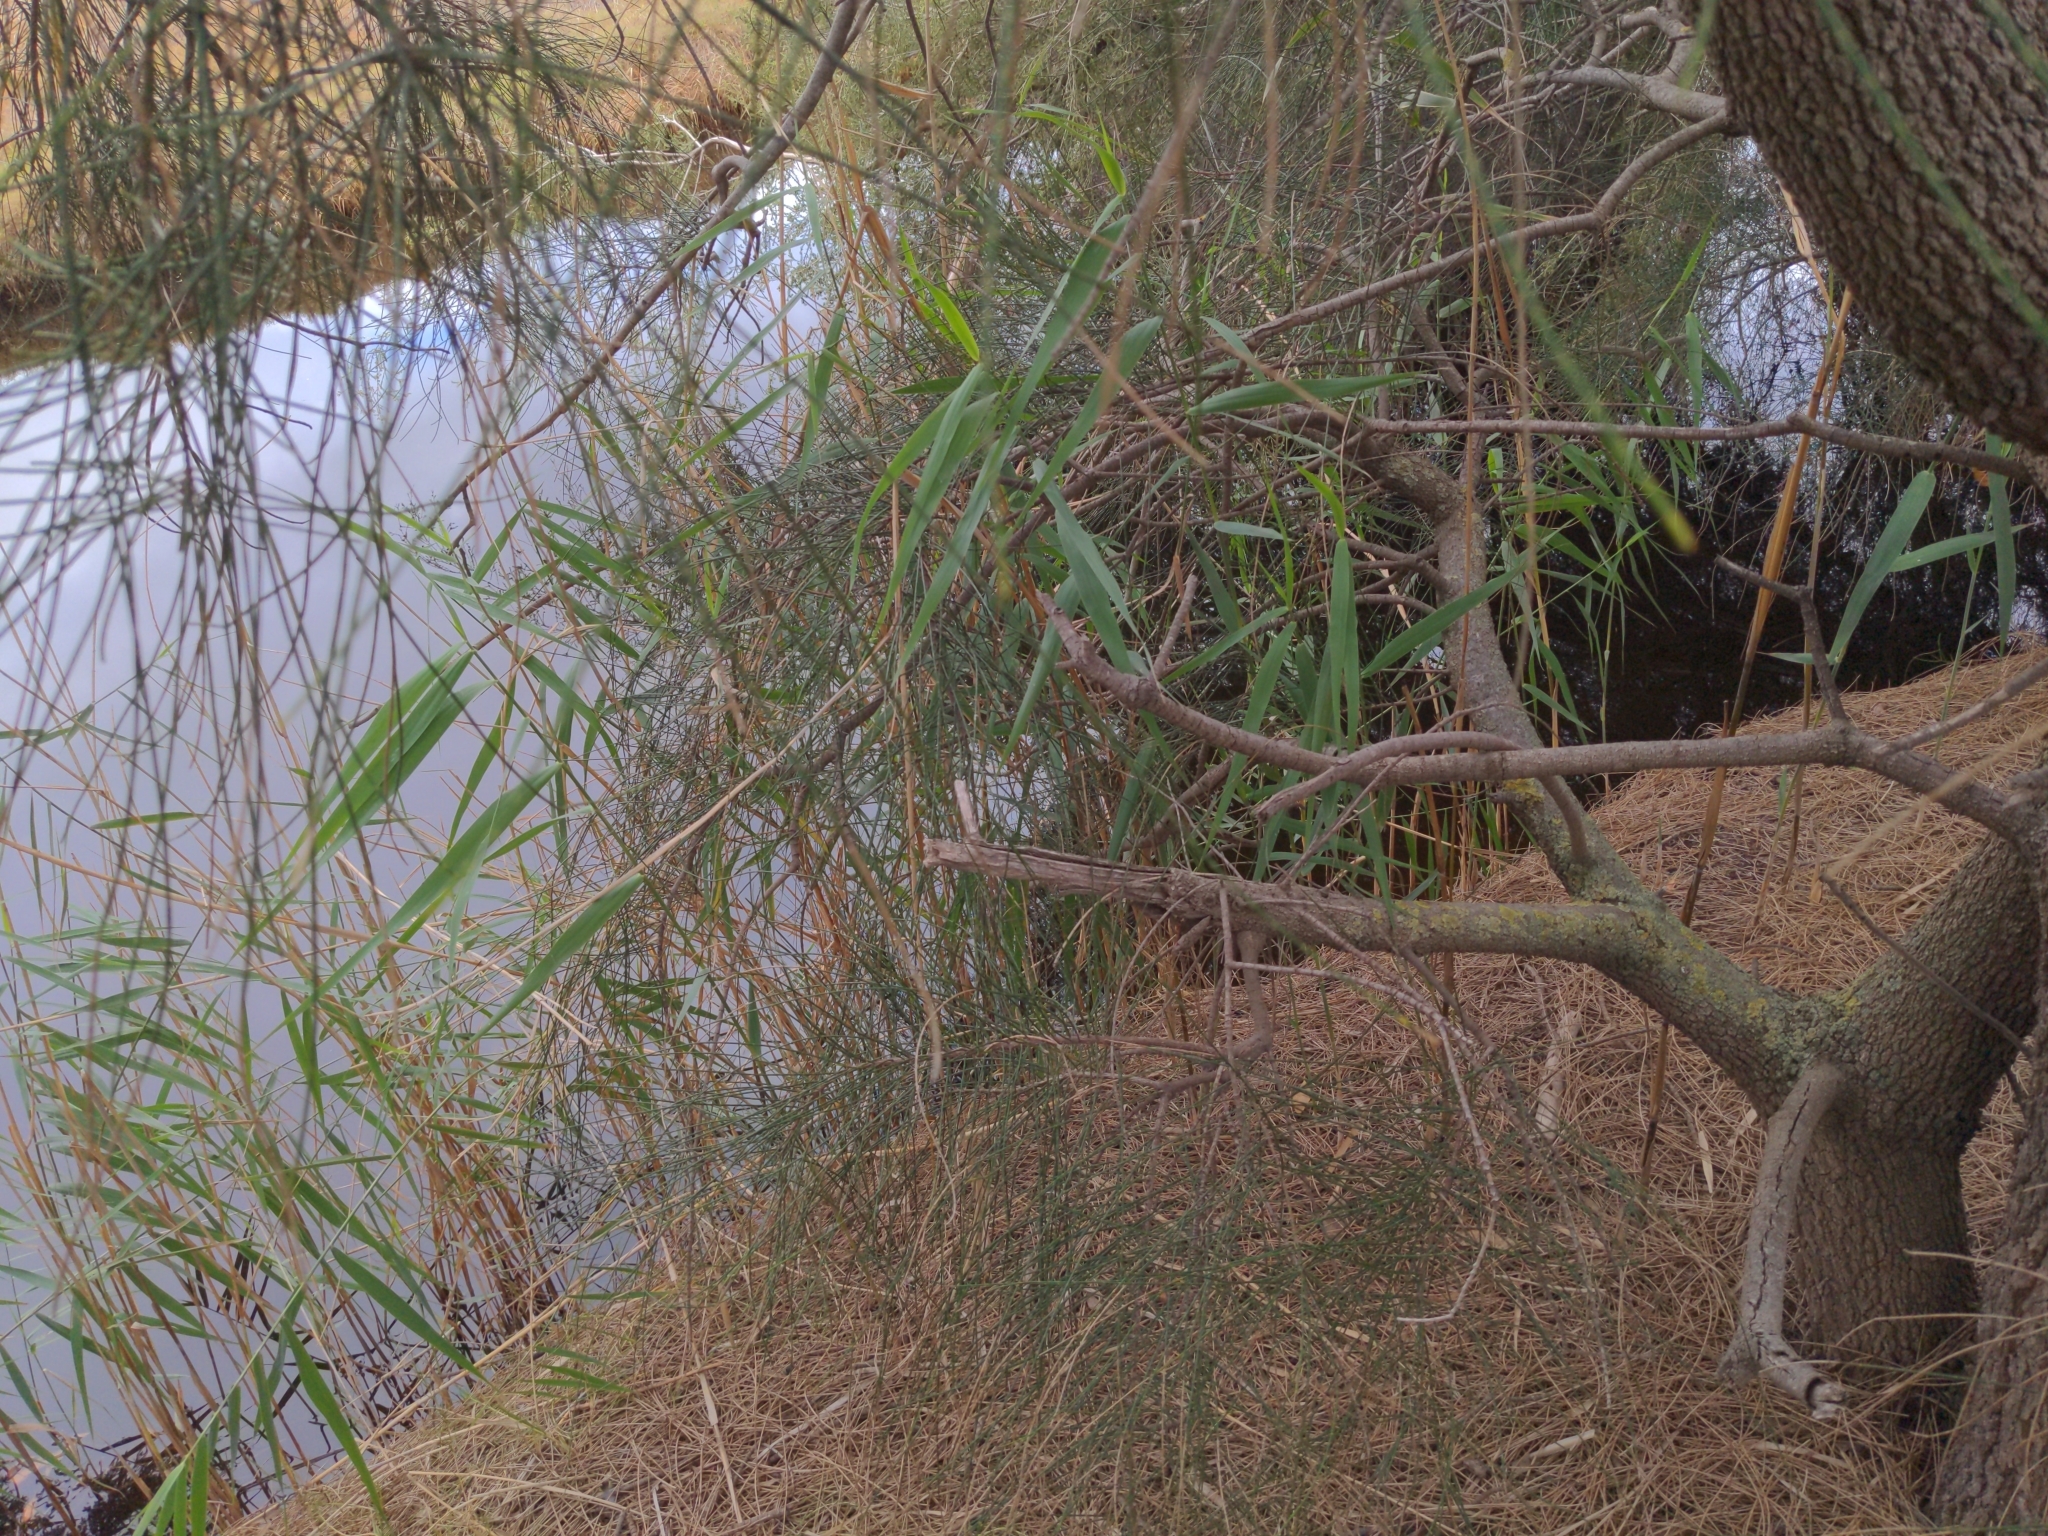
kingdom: Plantae
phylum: Tracheophyta
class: Liliopsida
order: Poales
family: Poaceae
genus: Phragmites
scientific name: Phragmites australis
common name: Common reed
